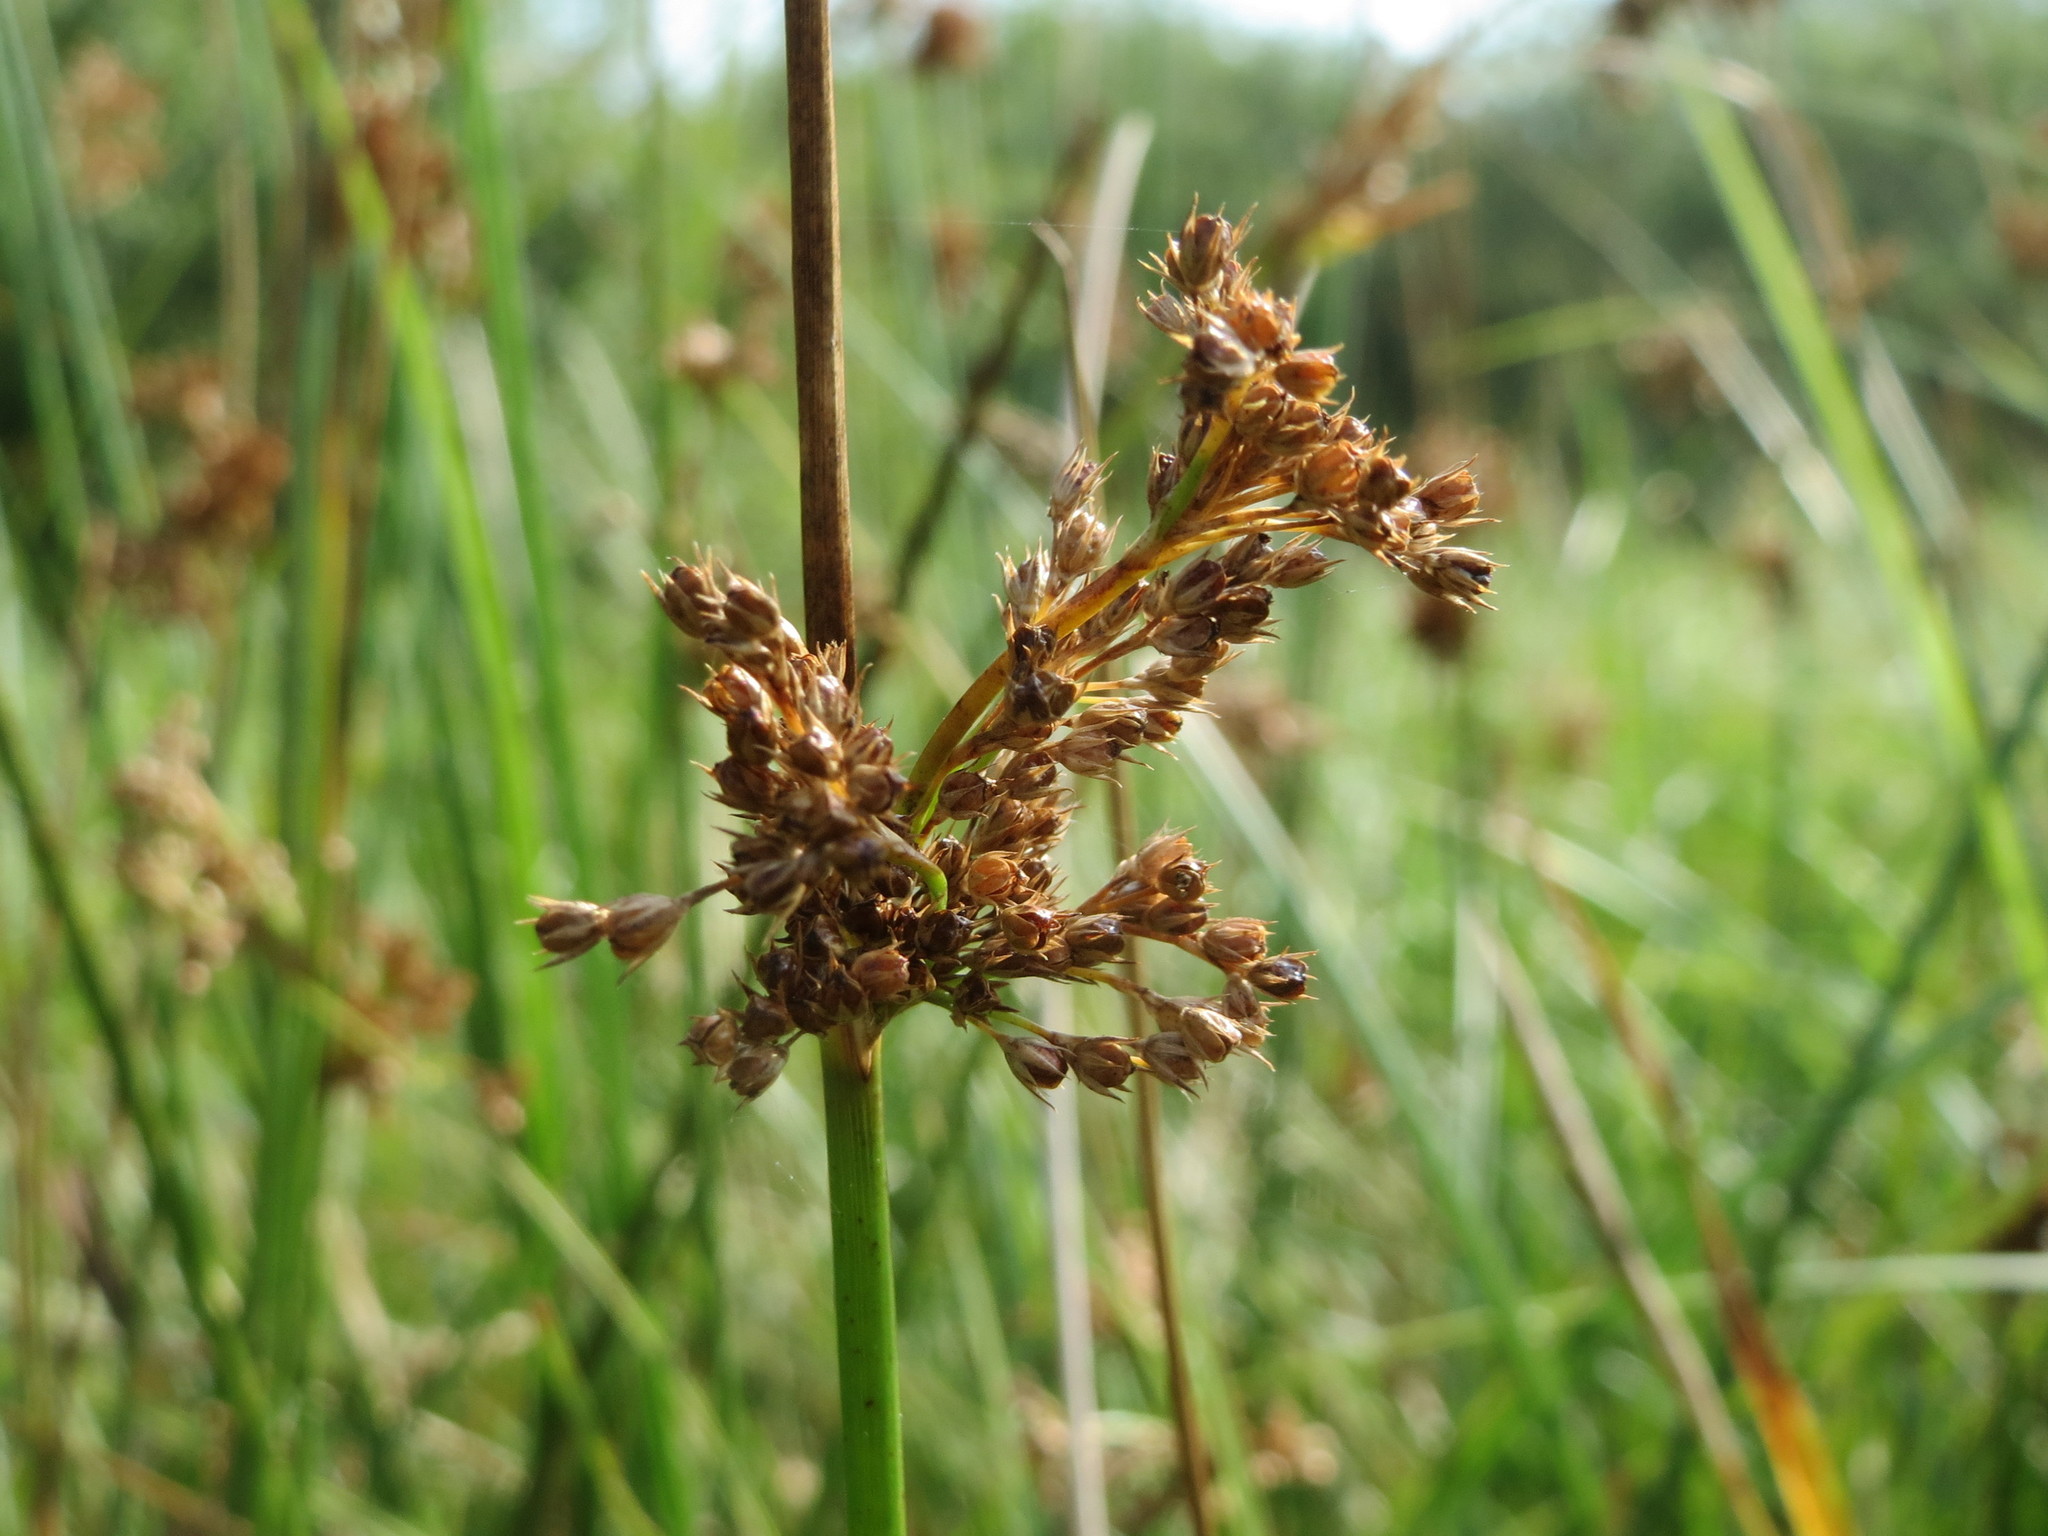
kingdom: Plantae
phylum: Tracheophyta
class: Liliopsida
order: Poales
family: Juncaceae
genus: Juncus
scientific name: Juncus effusus
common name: Soft rush
